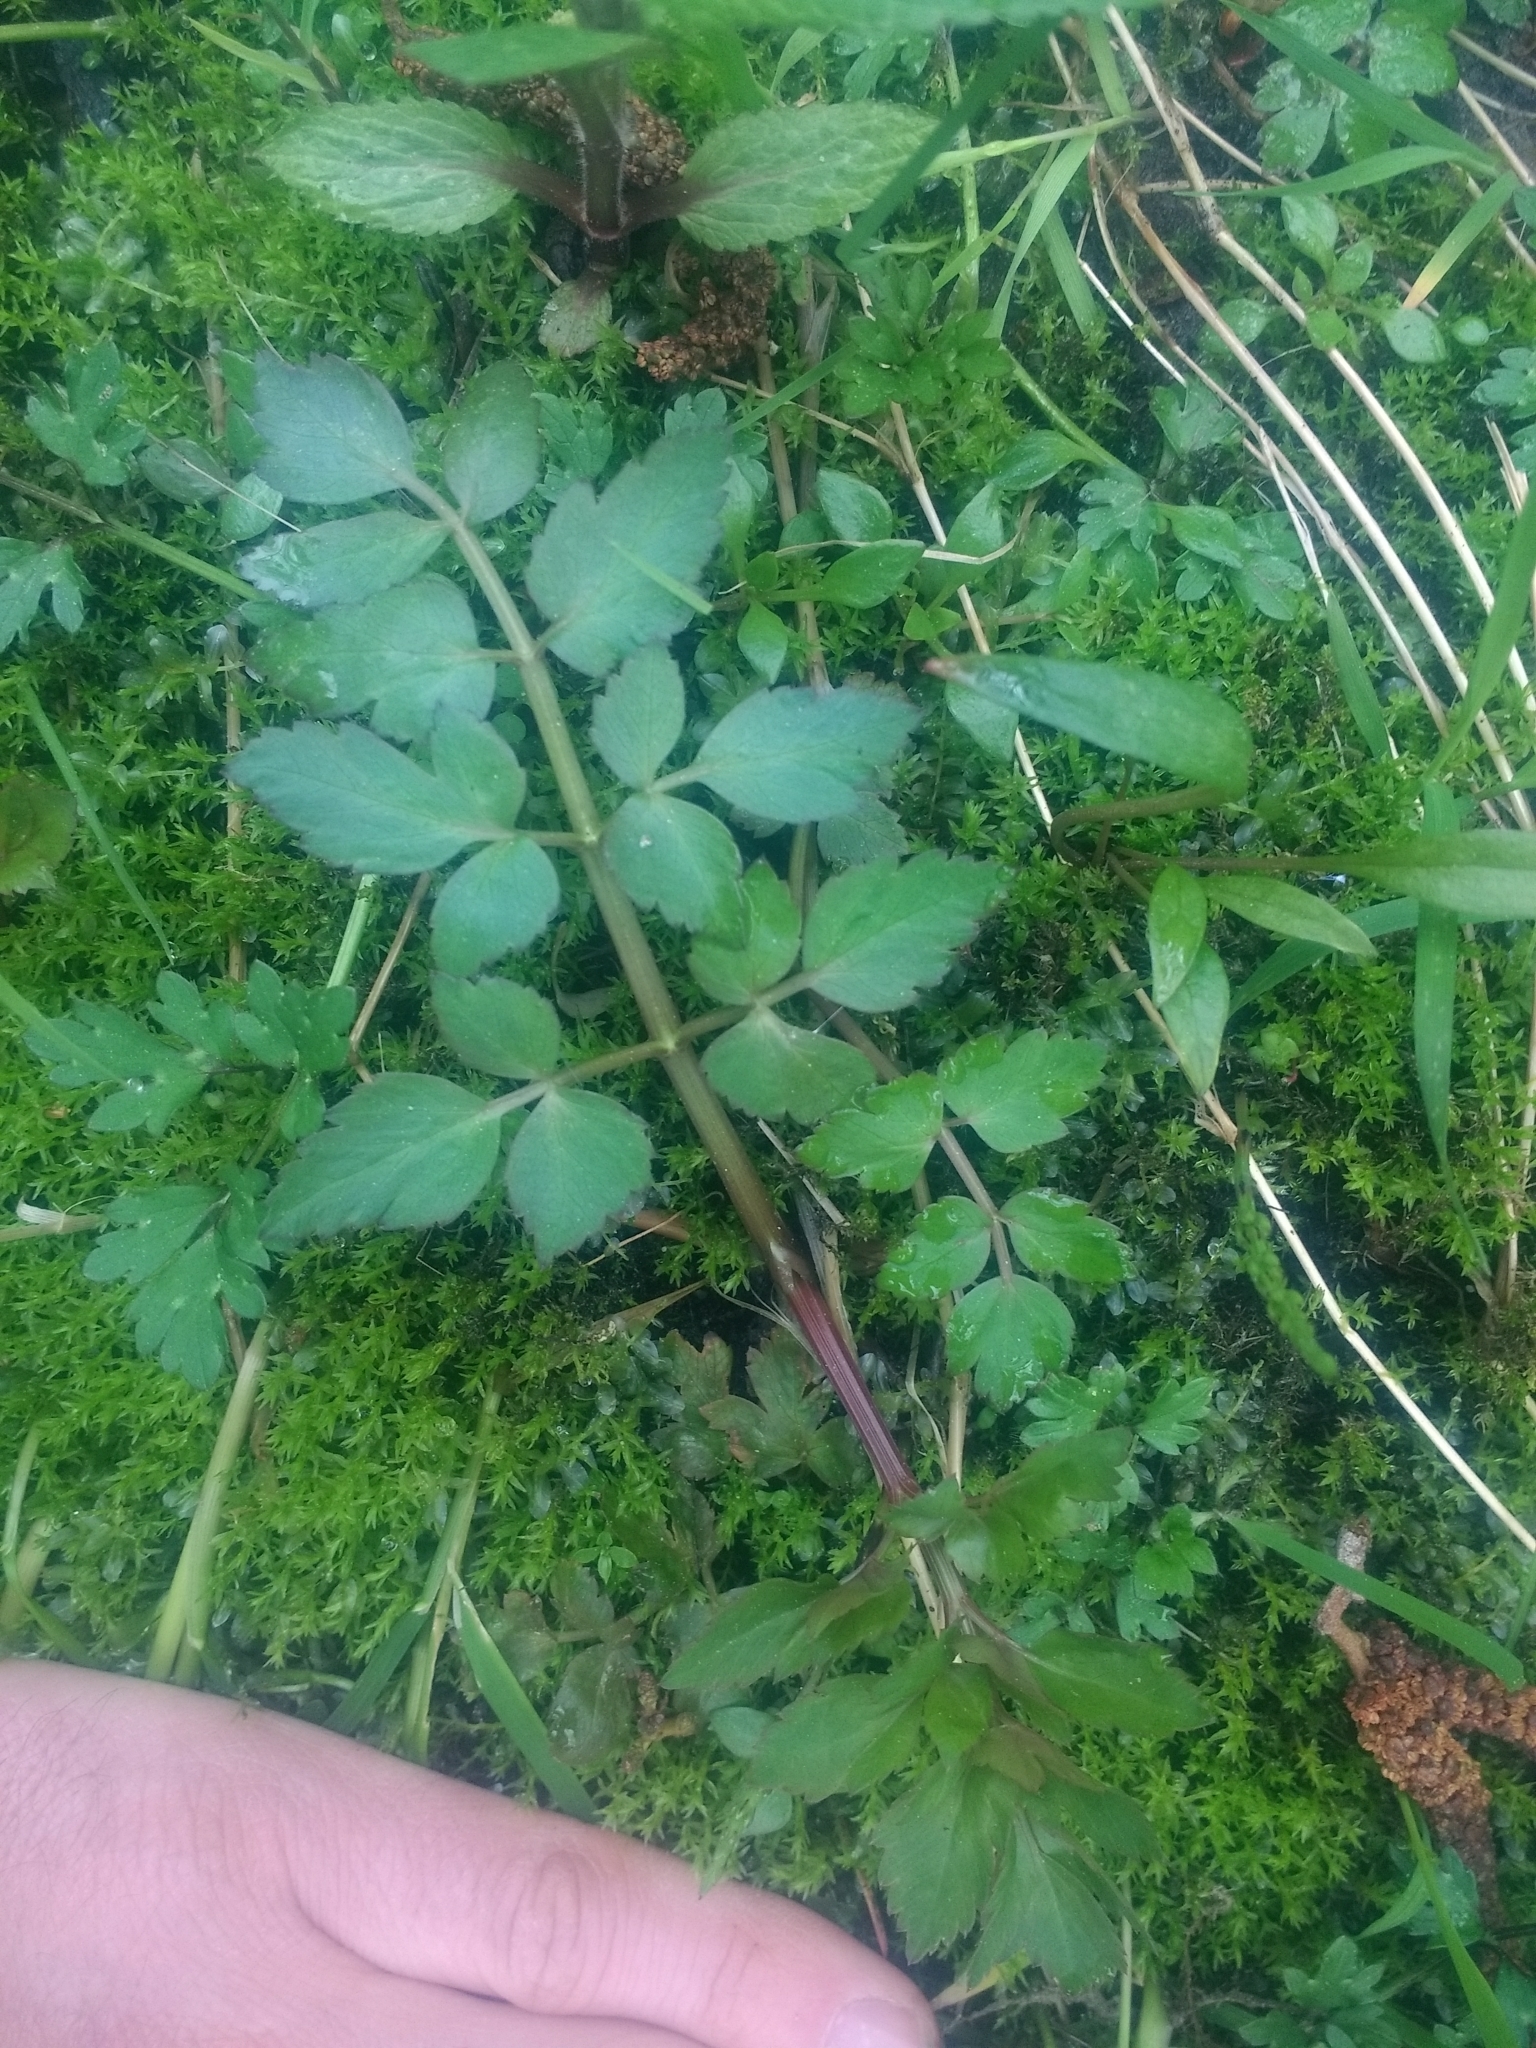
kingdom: Plantae
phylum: Tracheophyta
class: Magnoliopsida
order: Apiales
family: Apiaceae
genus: Oenanthe
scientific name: Oenanthe sarmentosa
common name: American water-parsley
